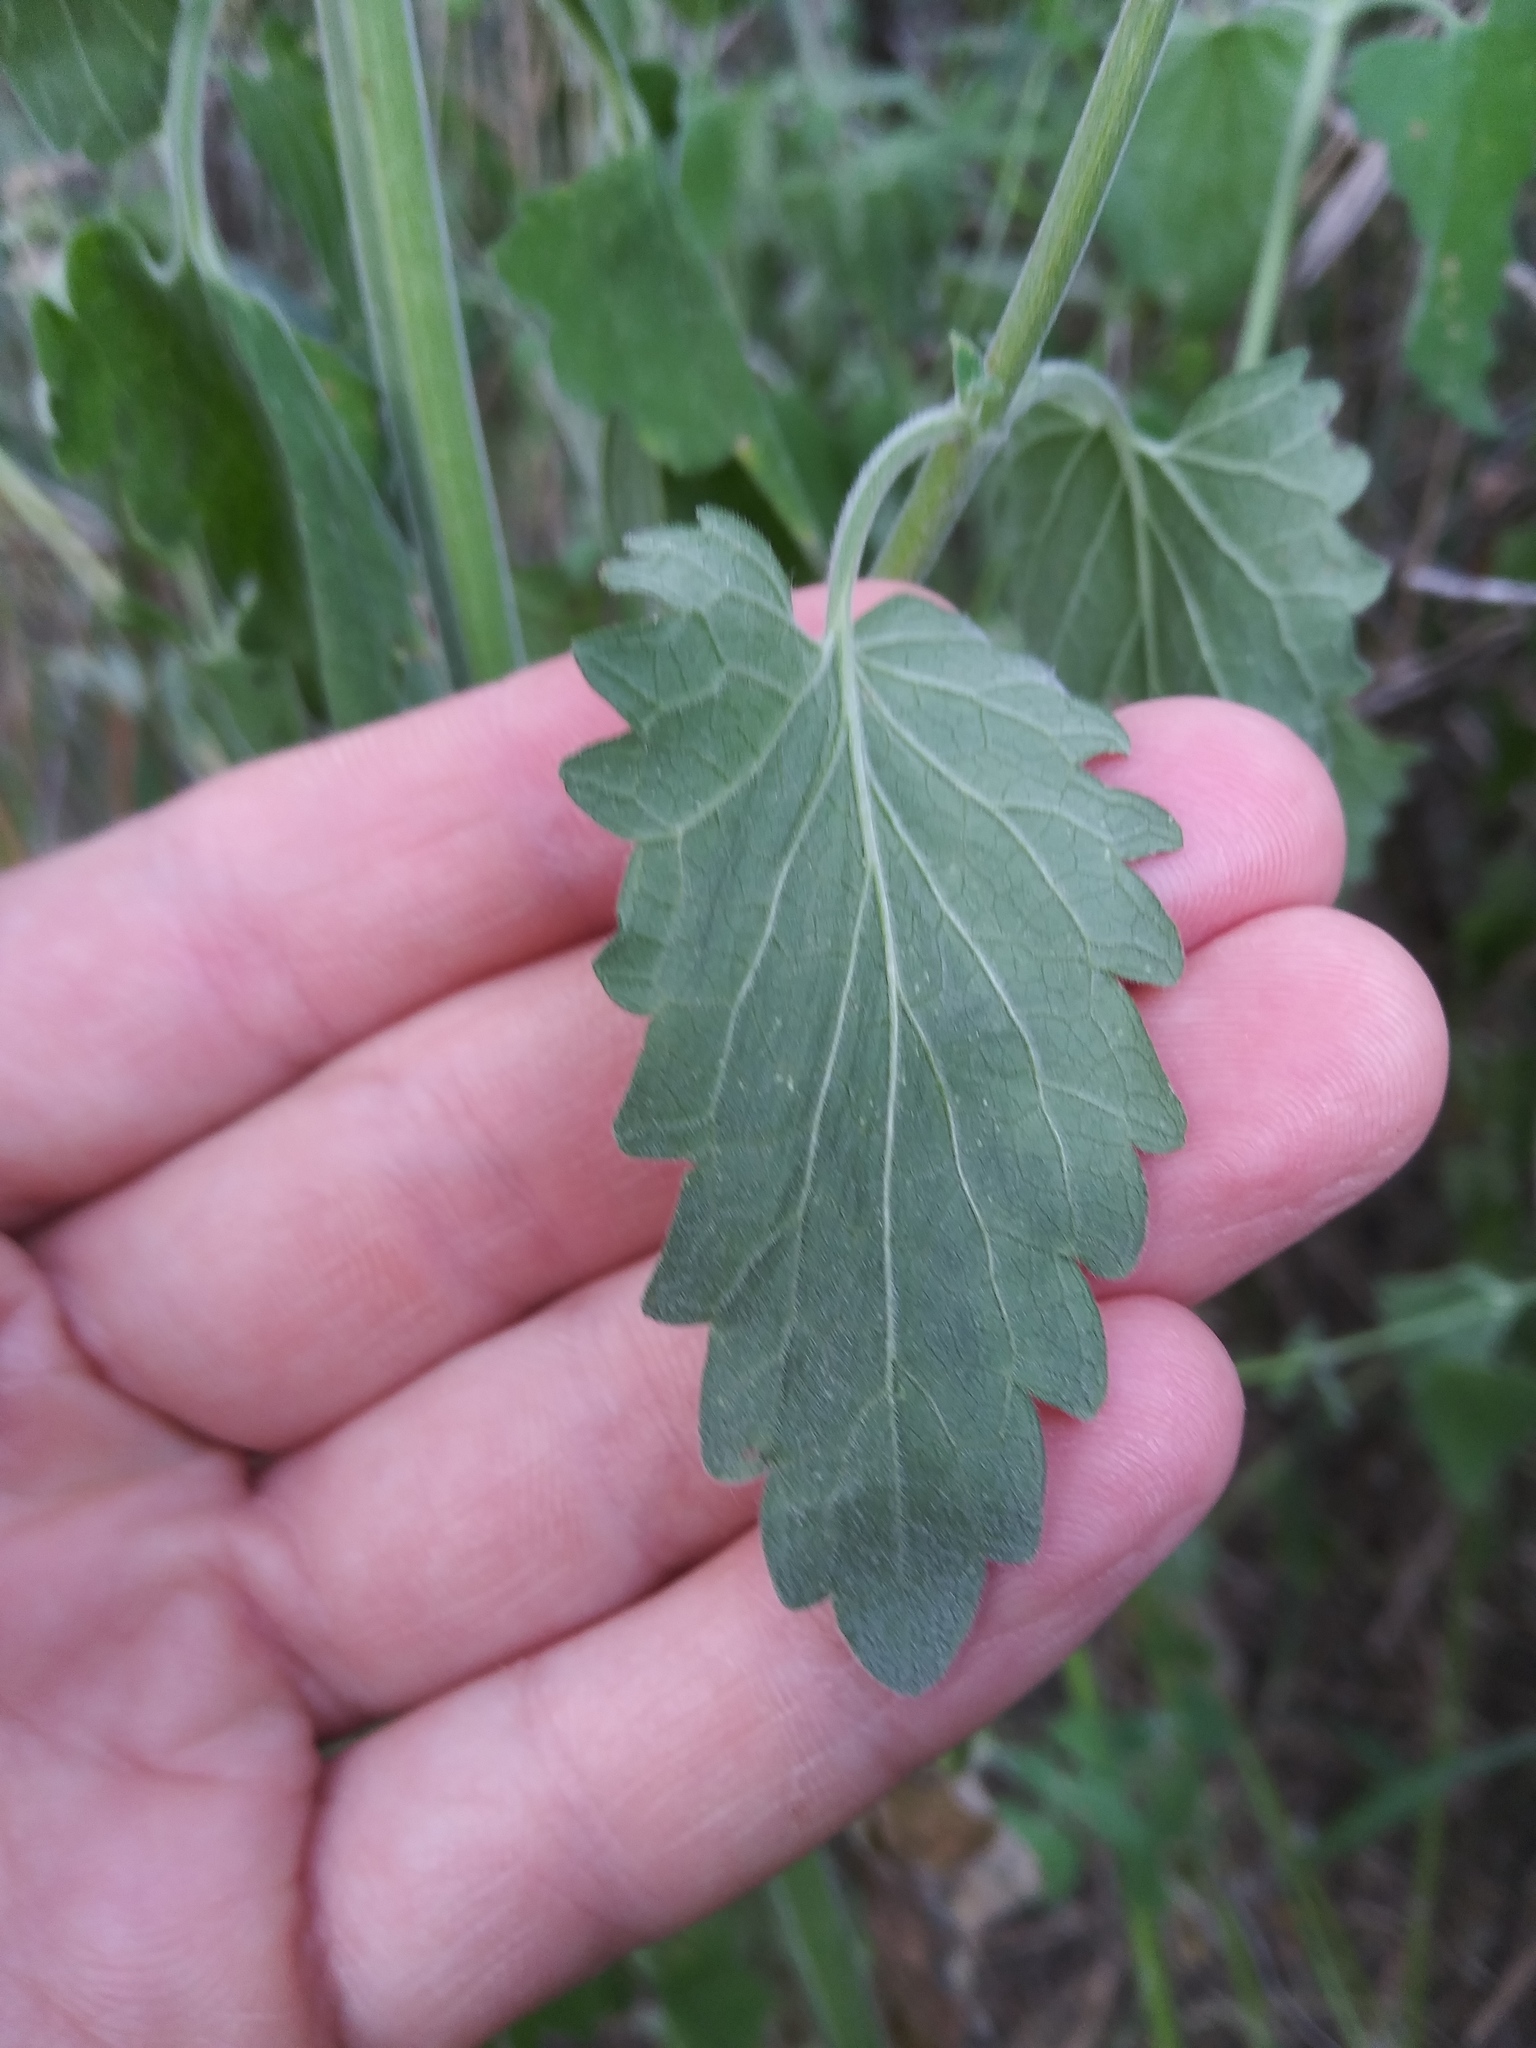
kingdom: Plantae
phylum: Tracheophyta
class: Magnoliopsida
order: Lamiales
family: Lamiaceae
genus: Nepeta
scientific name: Nepeta cataria
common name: Catnip
